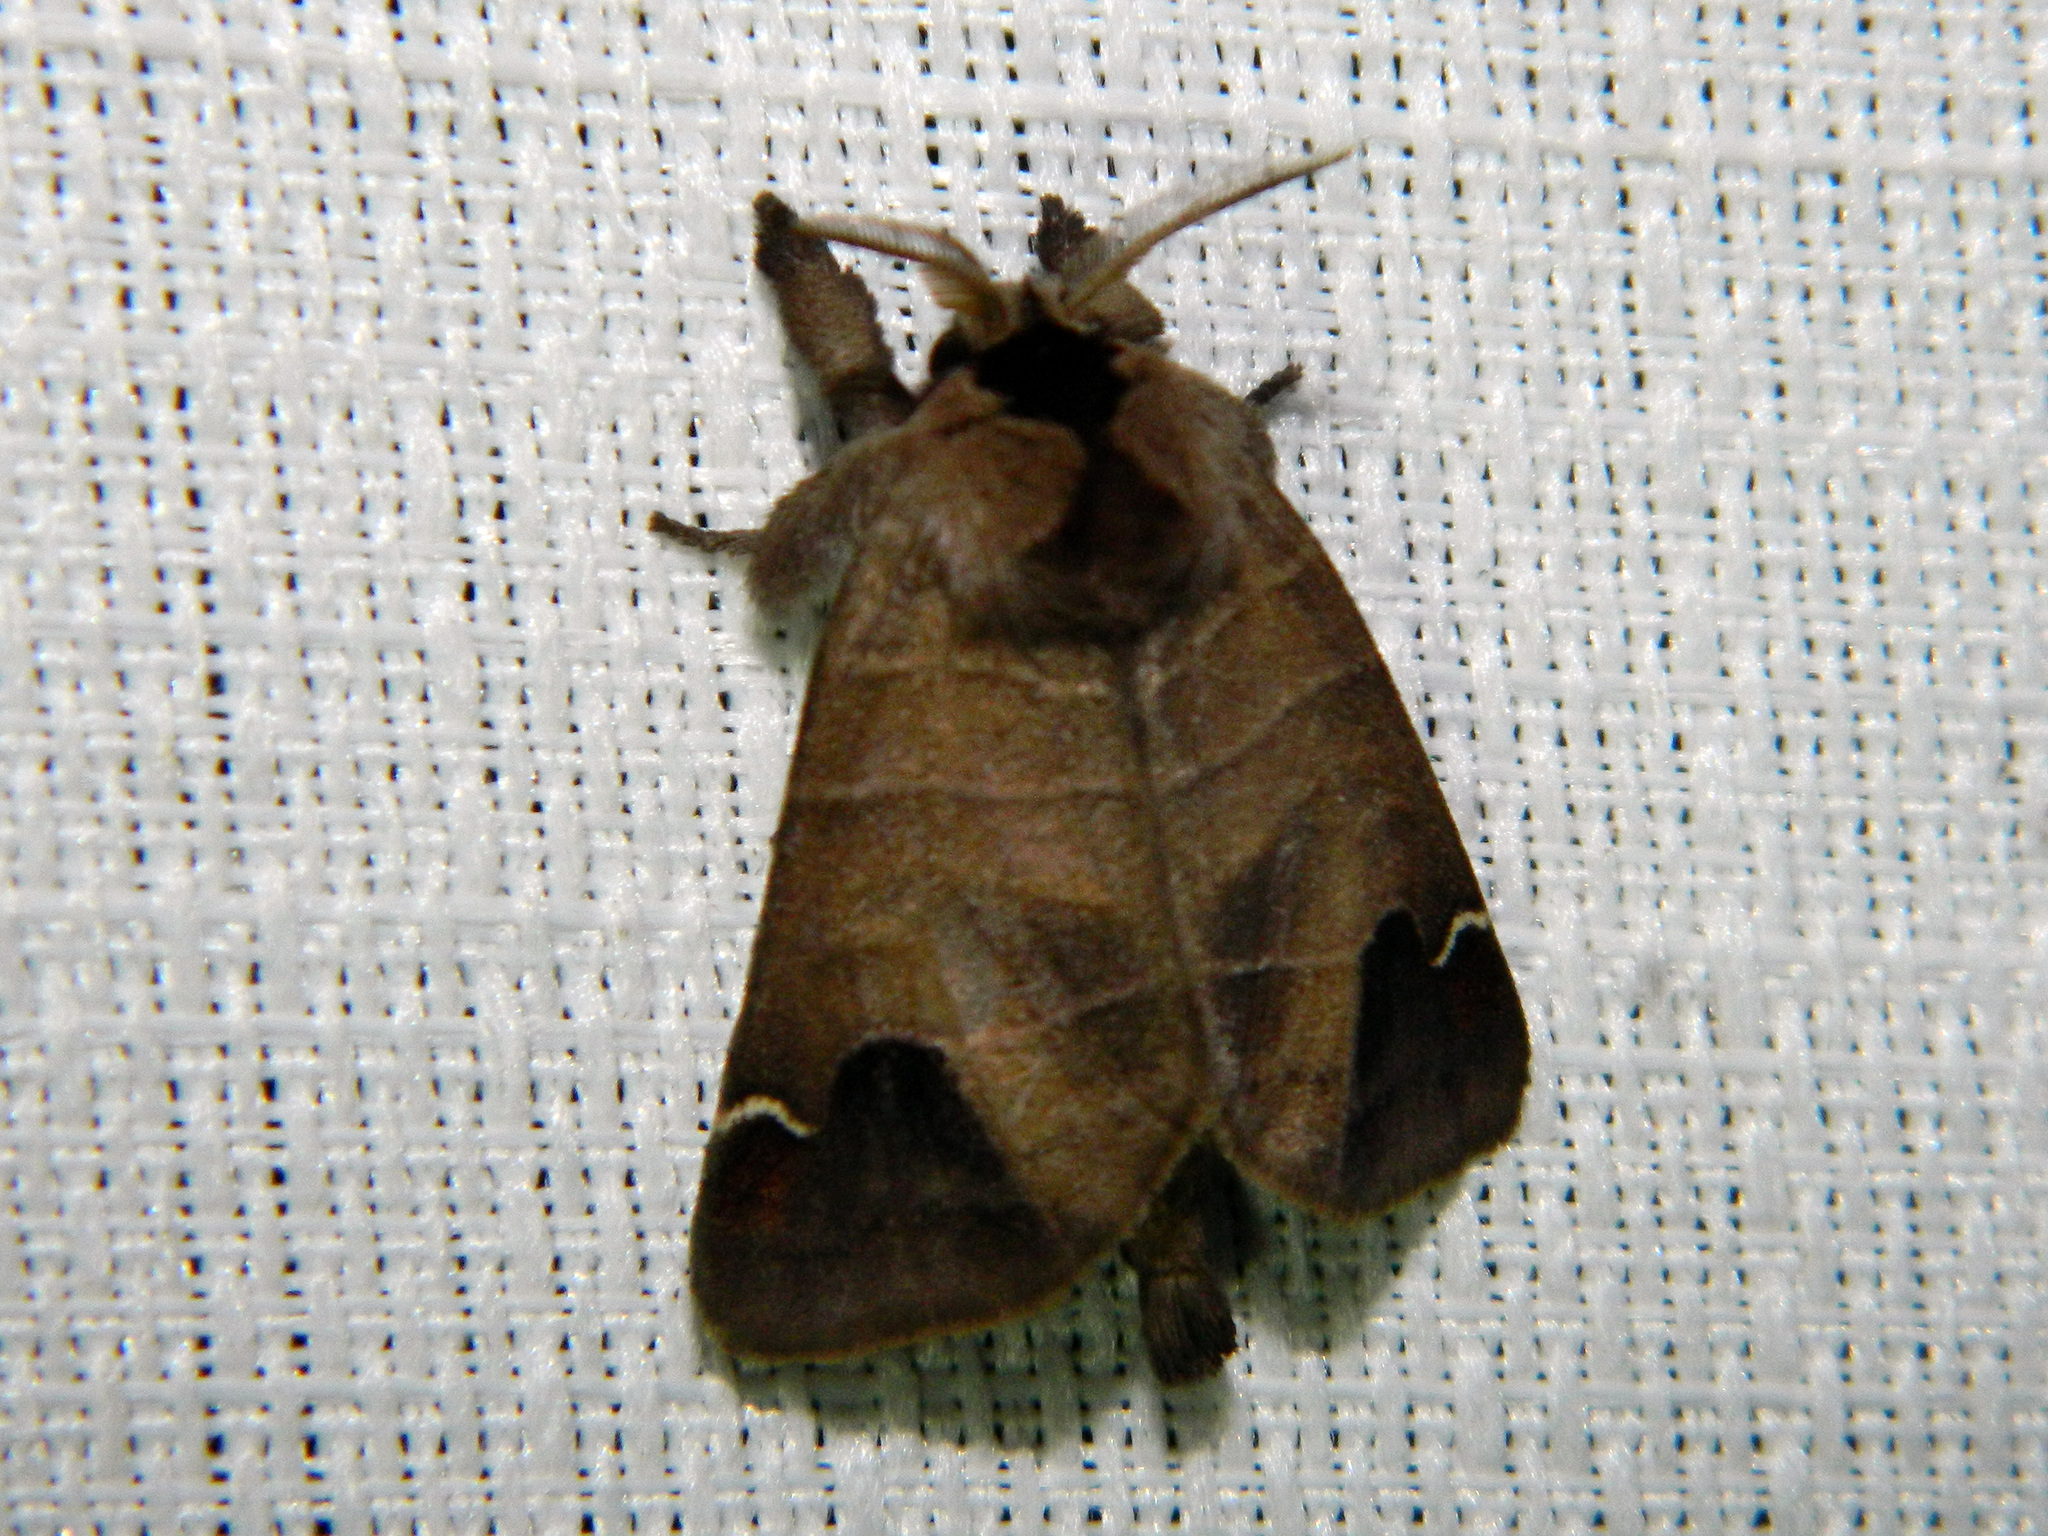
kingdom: Animalia
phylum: Arthropoda
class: Insecta
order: Lepidoptera
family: Notodontidae
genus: Clostera
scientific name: Clostera albosigma
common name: Sigmoid prominent
